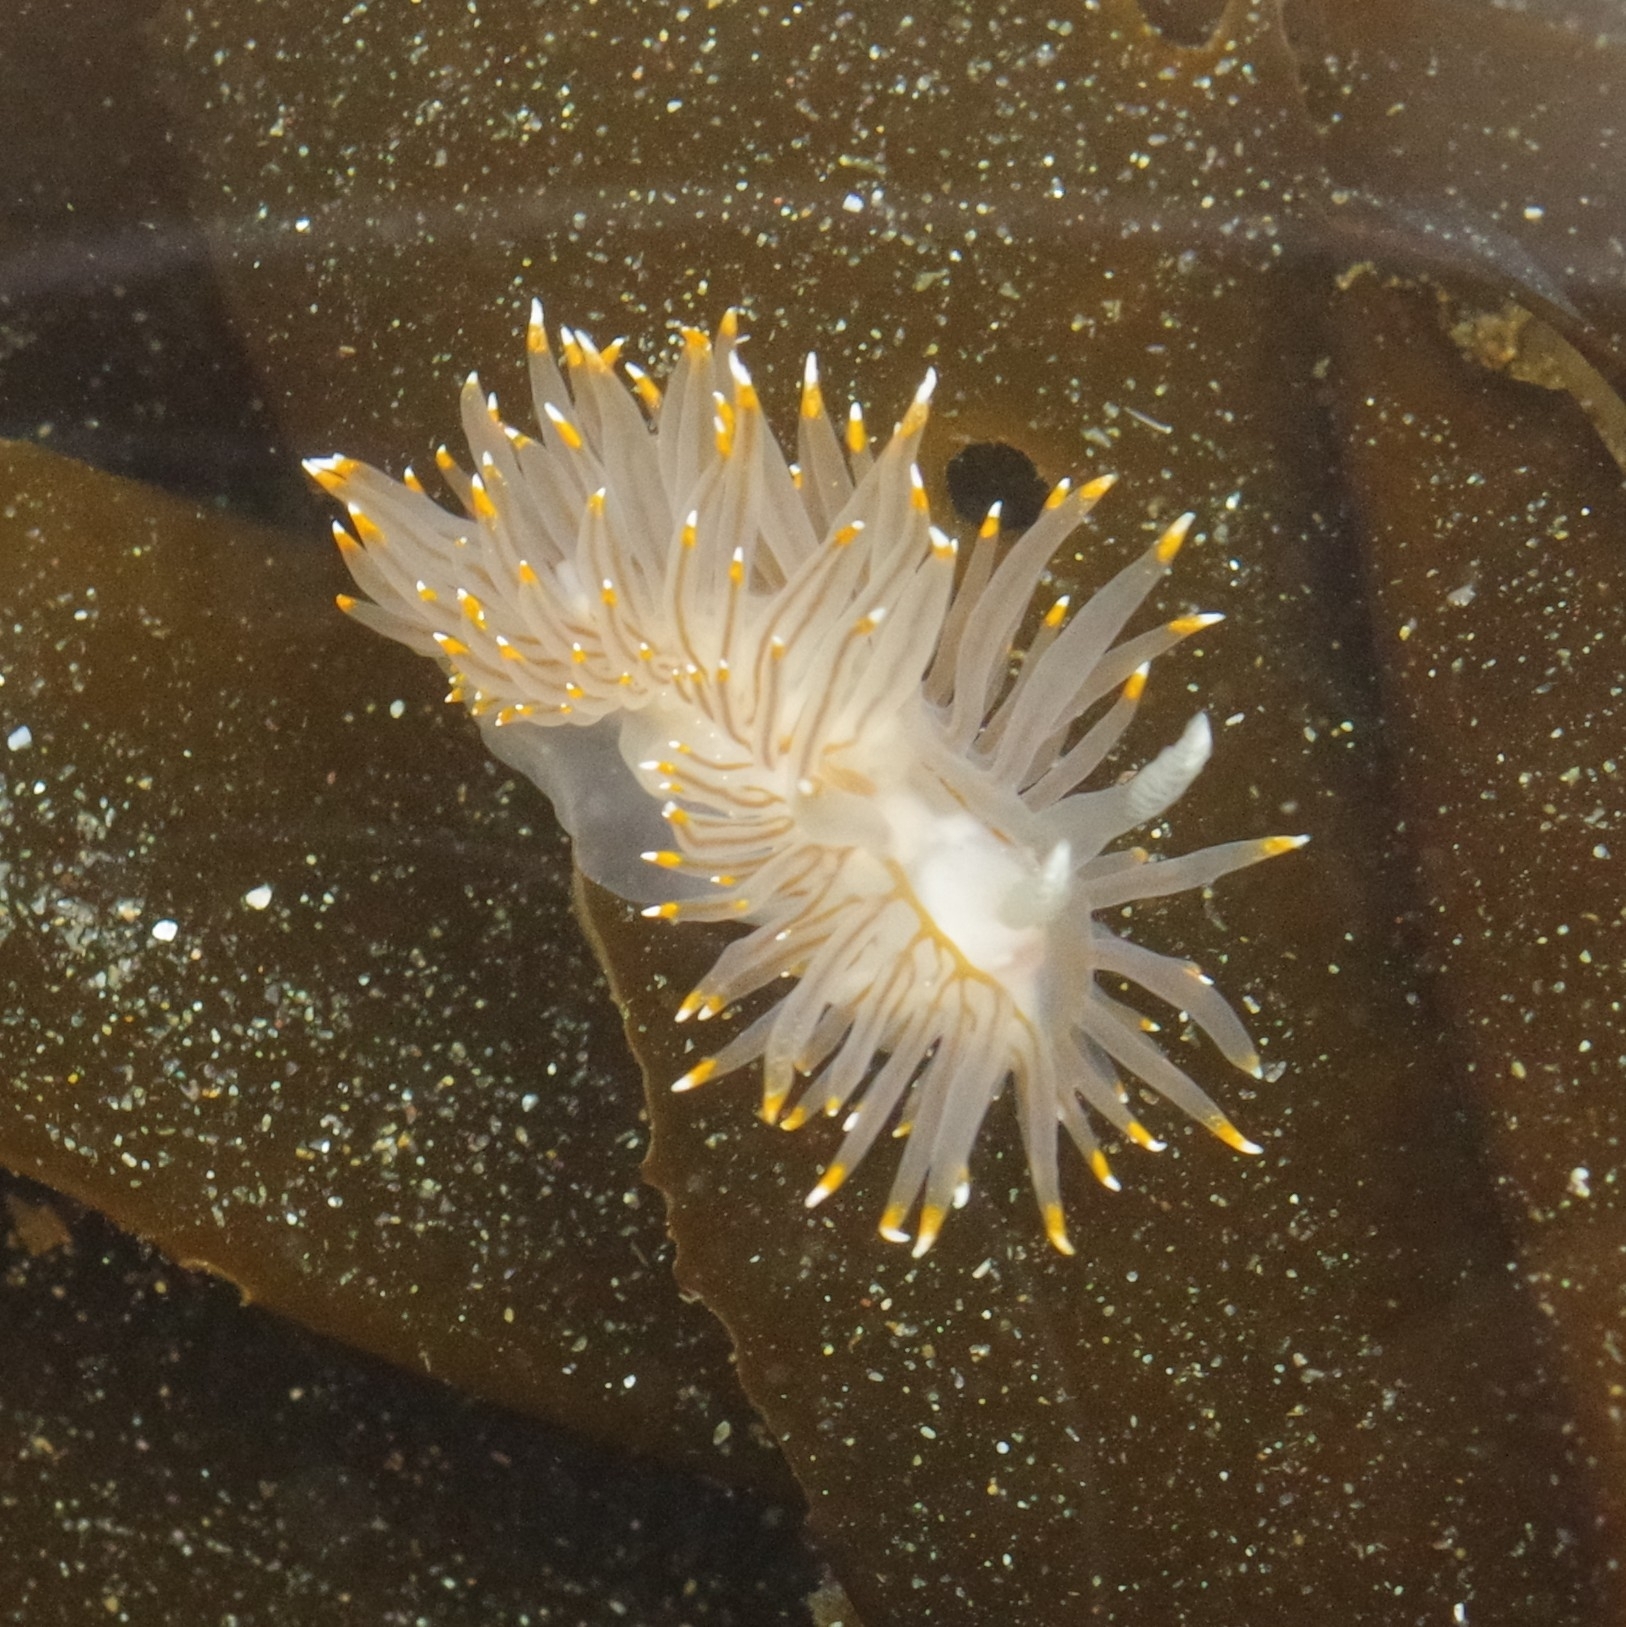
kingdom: Animalia
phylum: Mollusca
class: Gastropoda
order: Nudibranchia
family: Janolidae
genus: Antiopella
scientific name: Antiopella fusca
